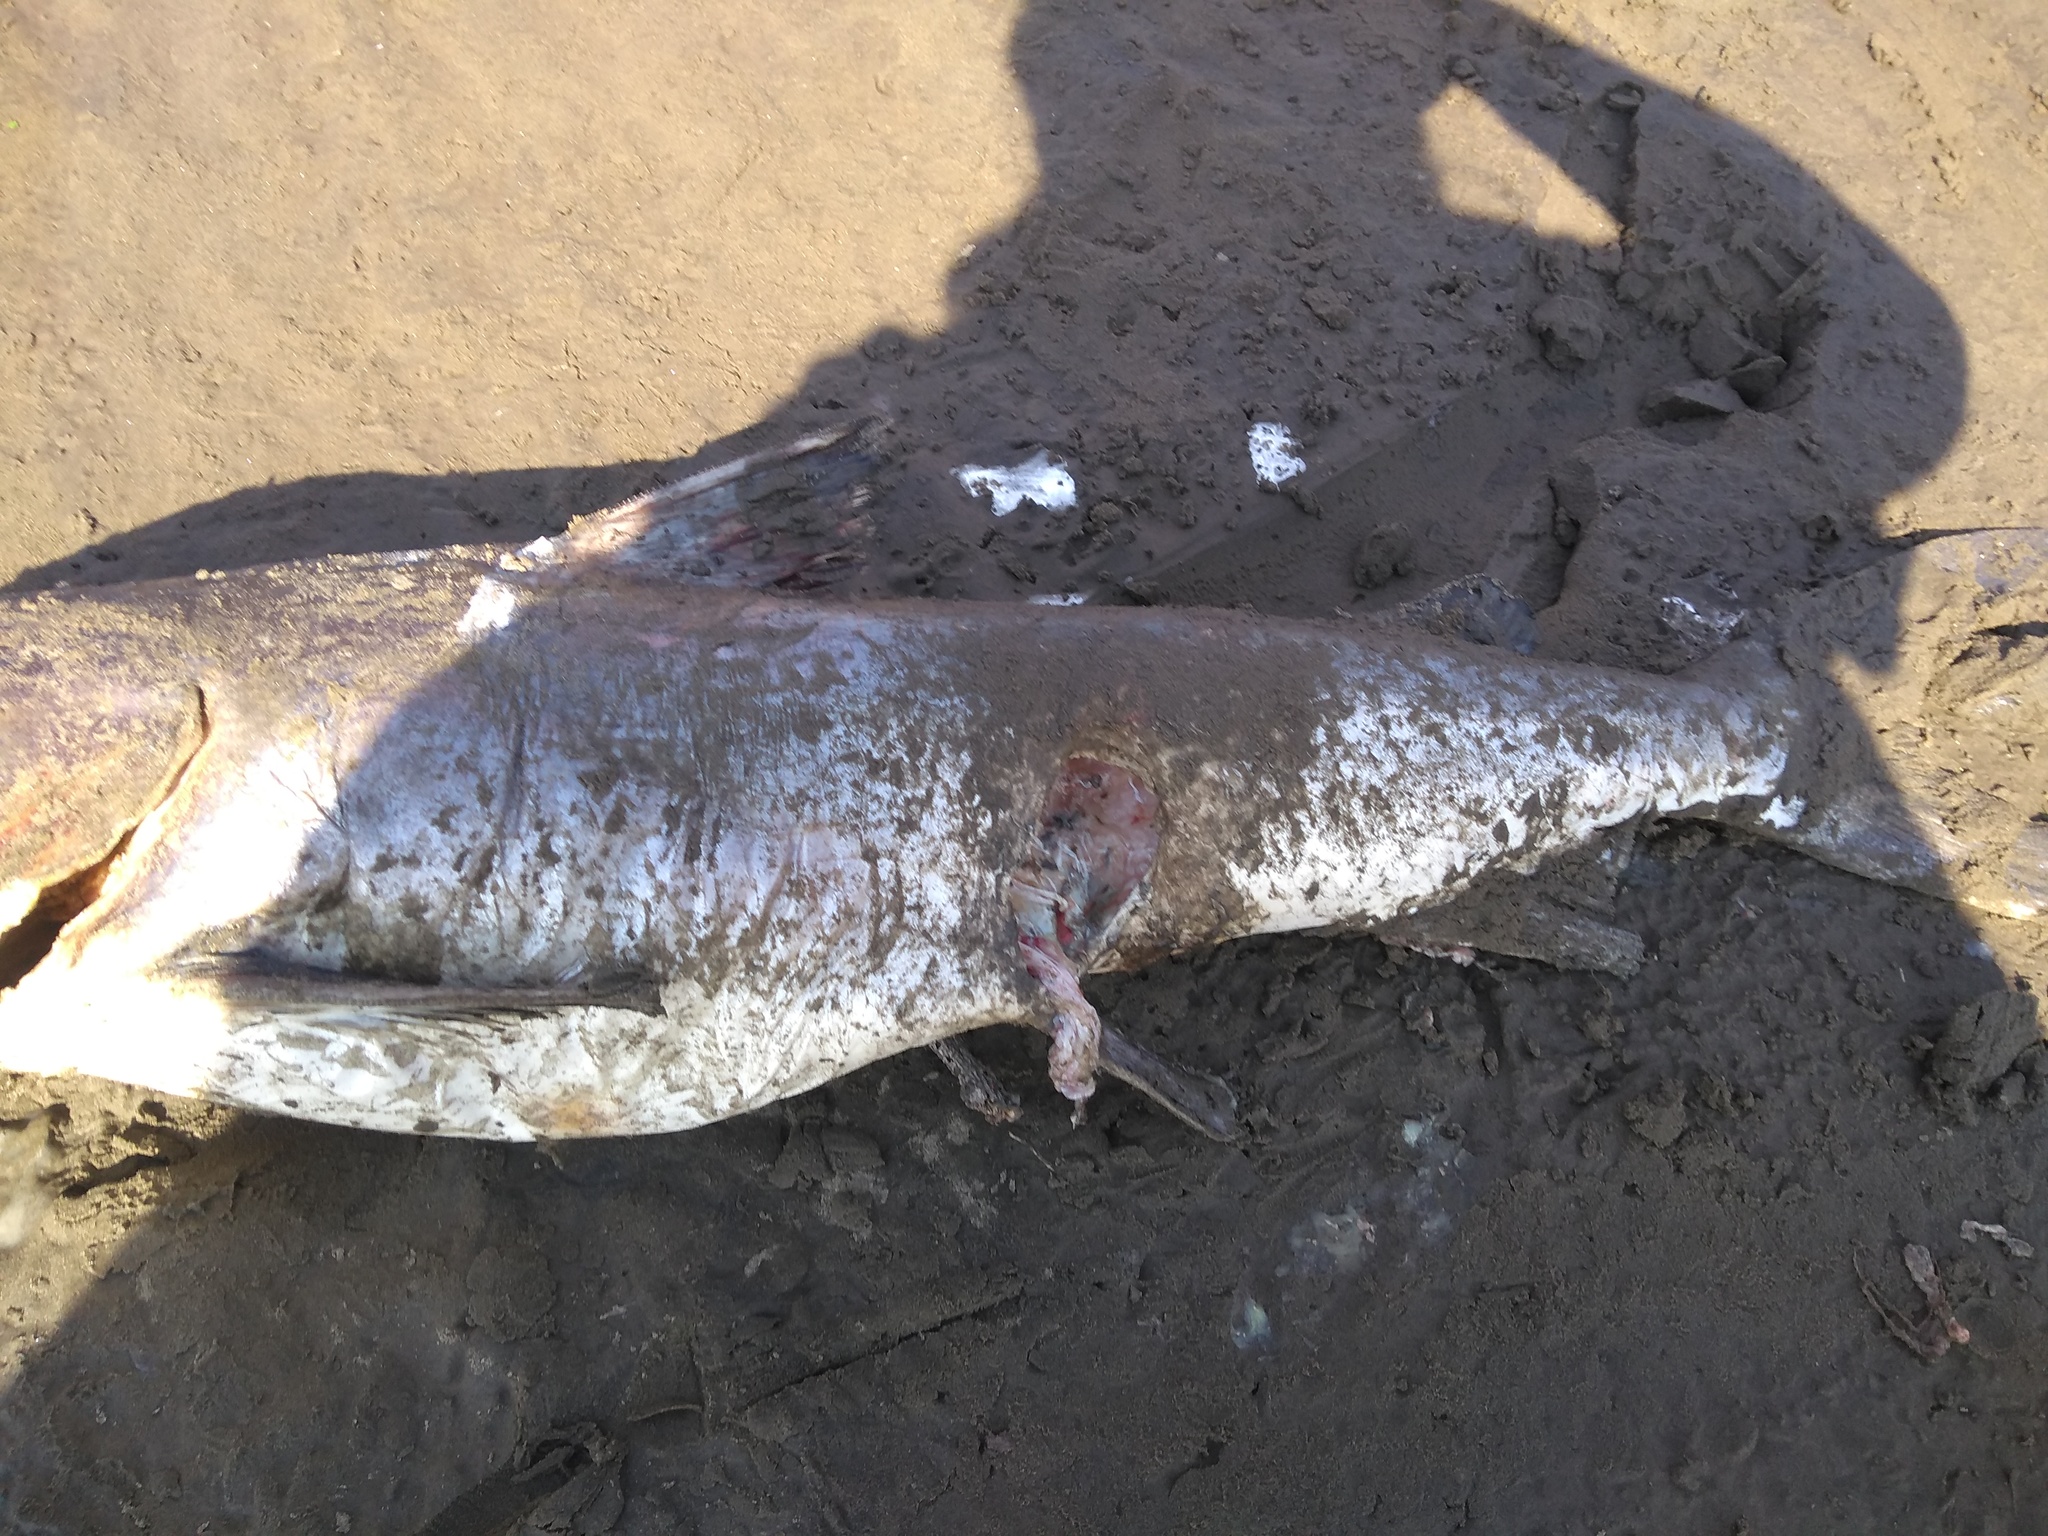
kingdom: Animalia
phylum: Chordata
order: Siluriformes
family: Ariidae
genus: Genidens
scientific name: Genidens barbus
